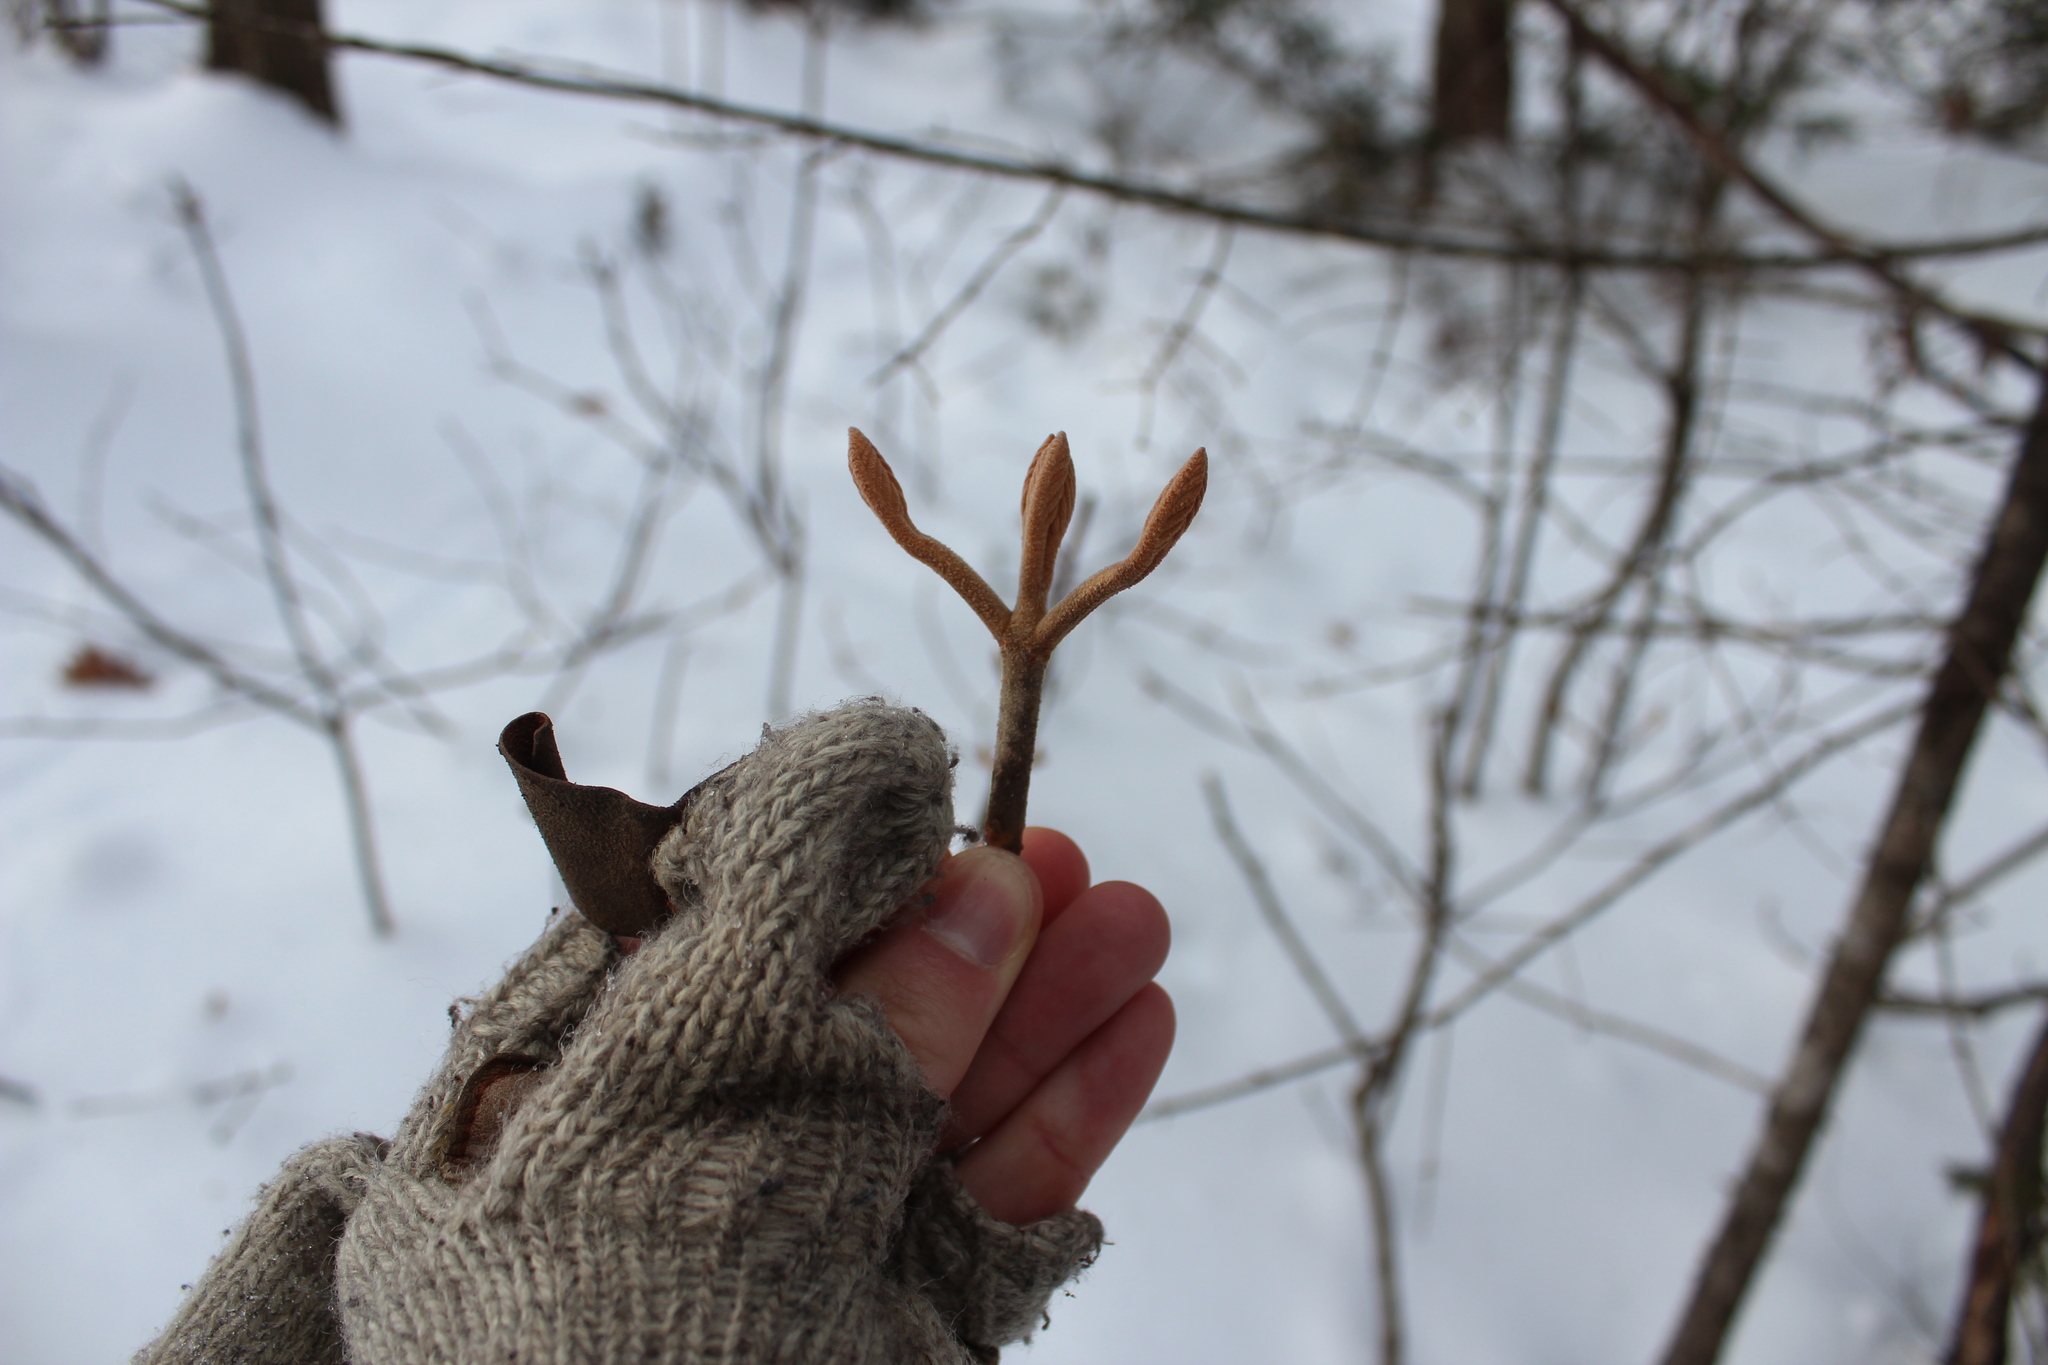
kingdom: Plantae
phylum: Tracheophyta
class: Magnoliopsida
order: Dipsacales
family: Viburnaceae
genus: Viburnum
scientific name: Viburnum lantanoides
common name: Hobblebush
